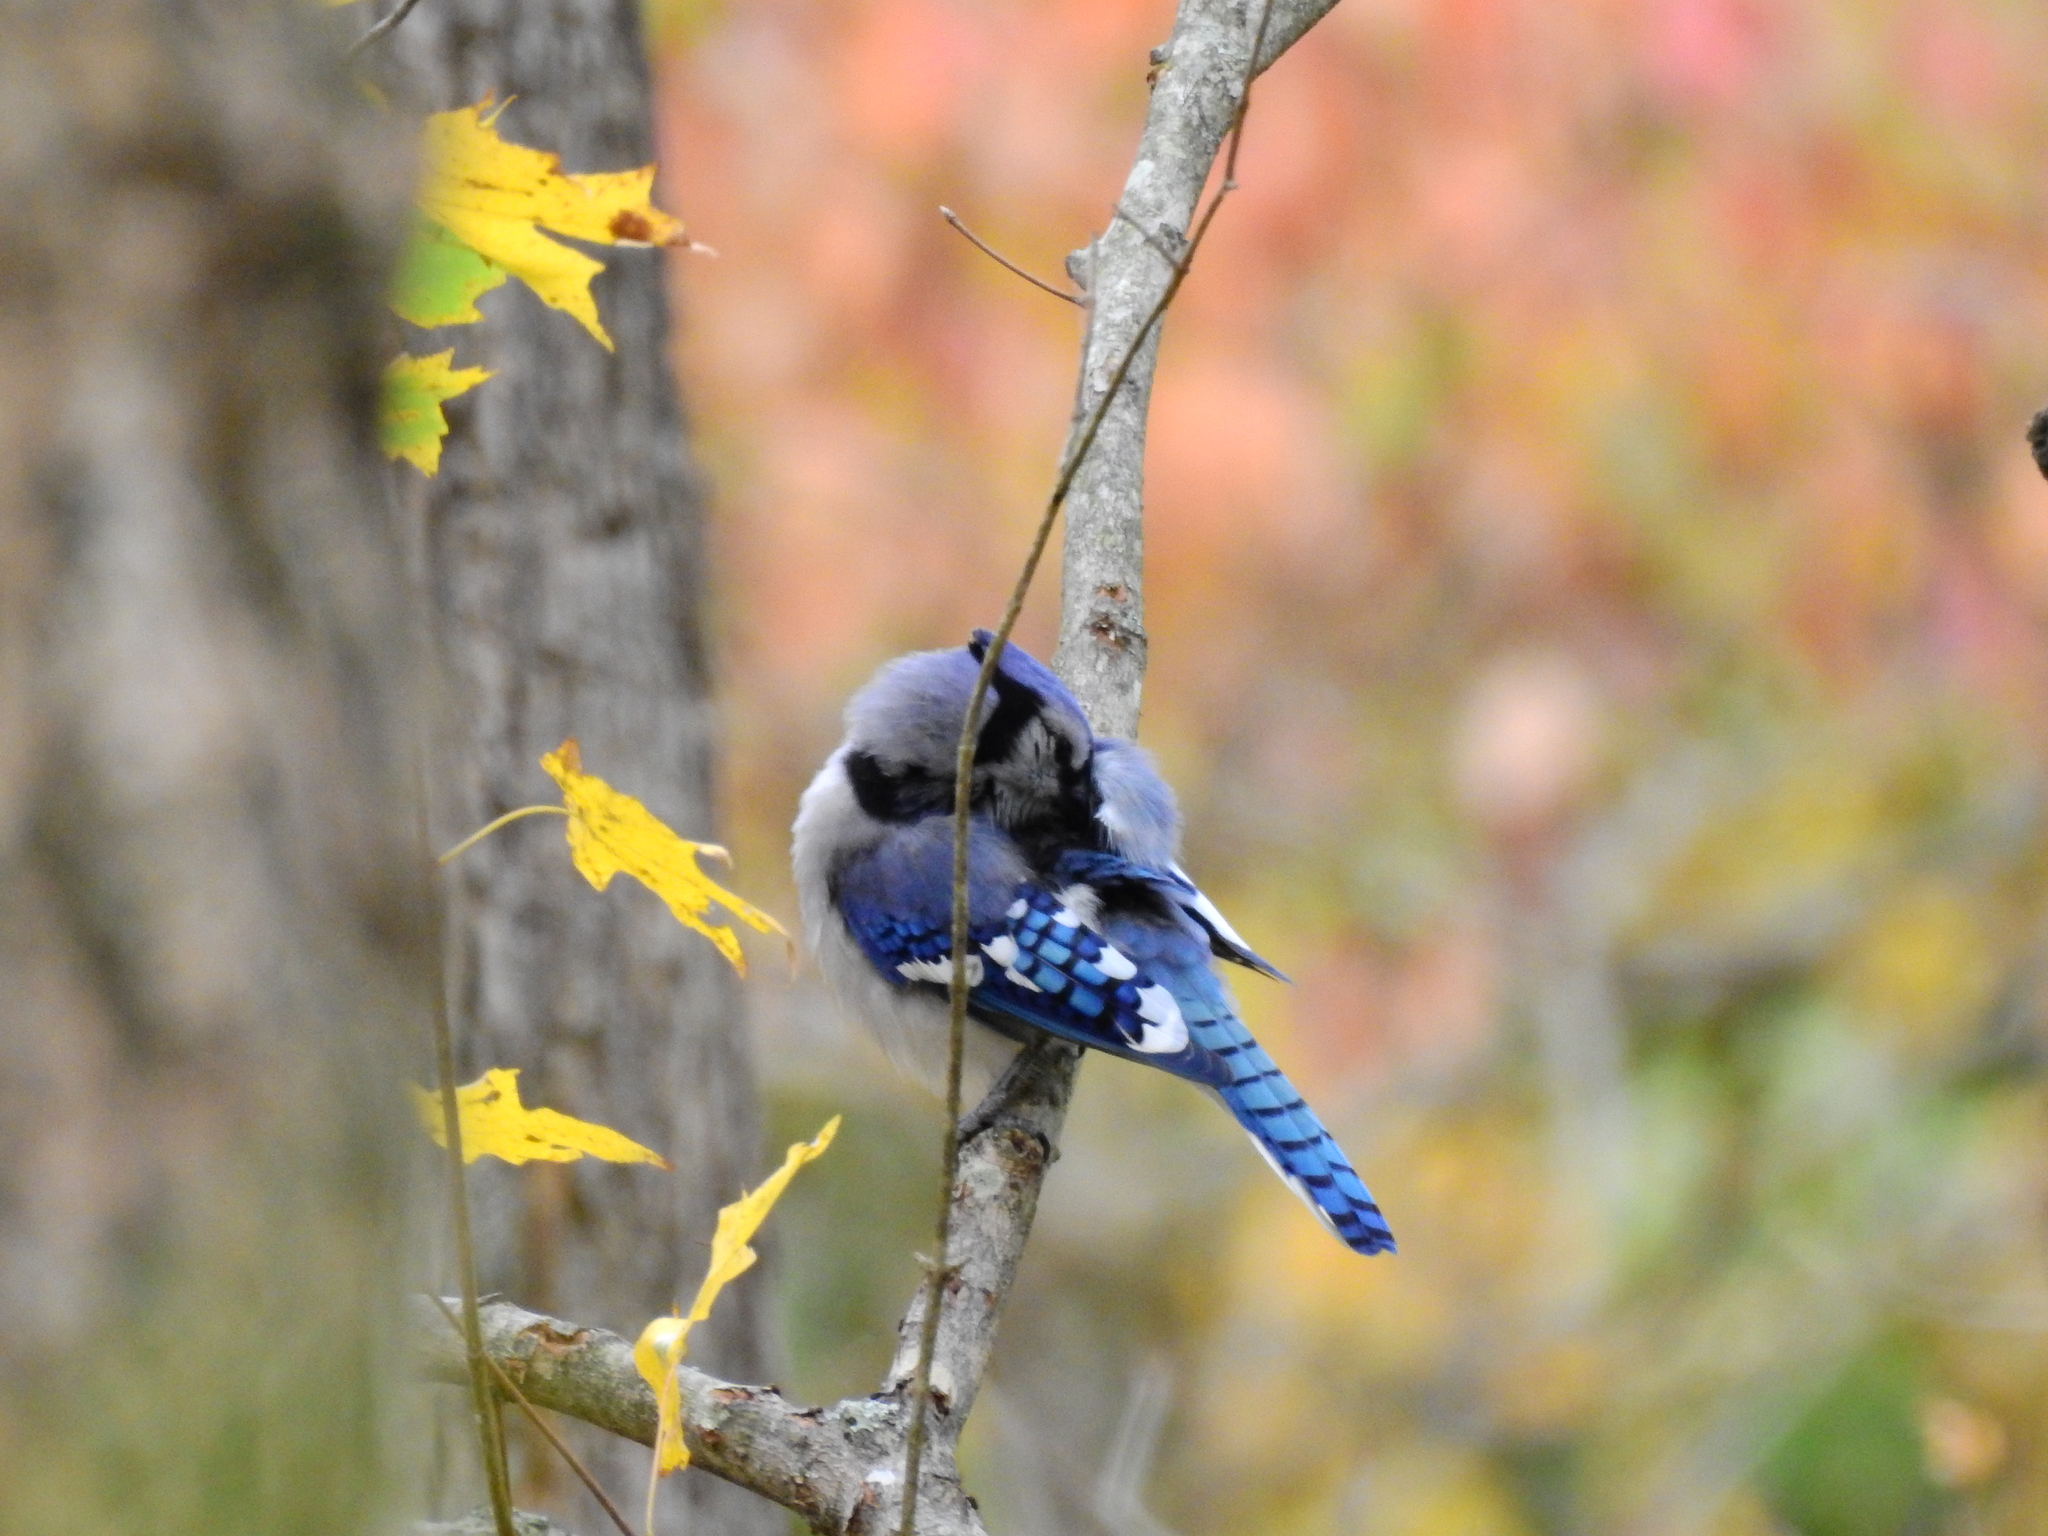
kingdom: Animalia
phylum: Chordata
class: Aves
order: Passeriformes
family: Corvidae
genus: Cyanocitta
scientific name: Cyanocitta cristata
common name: Blue jay
